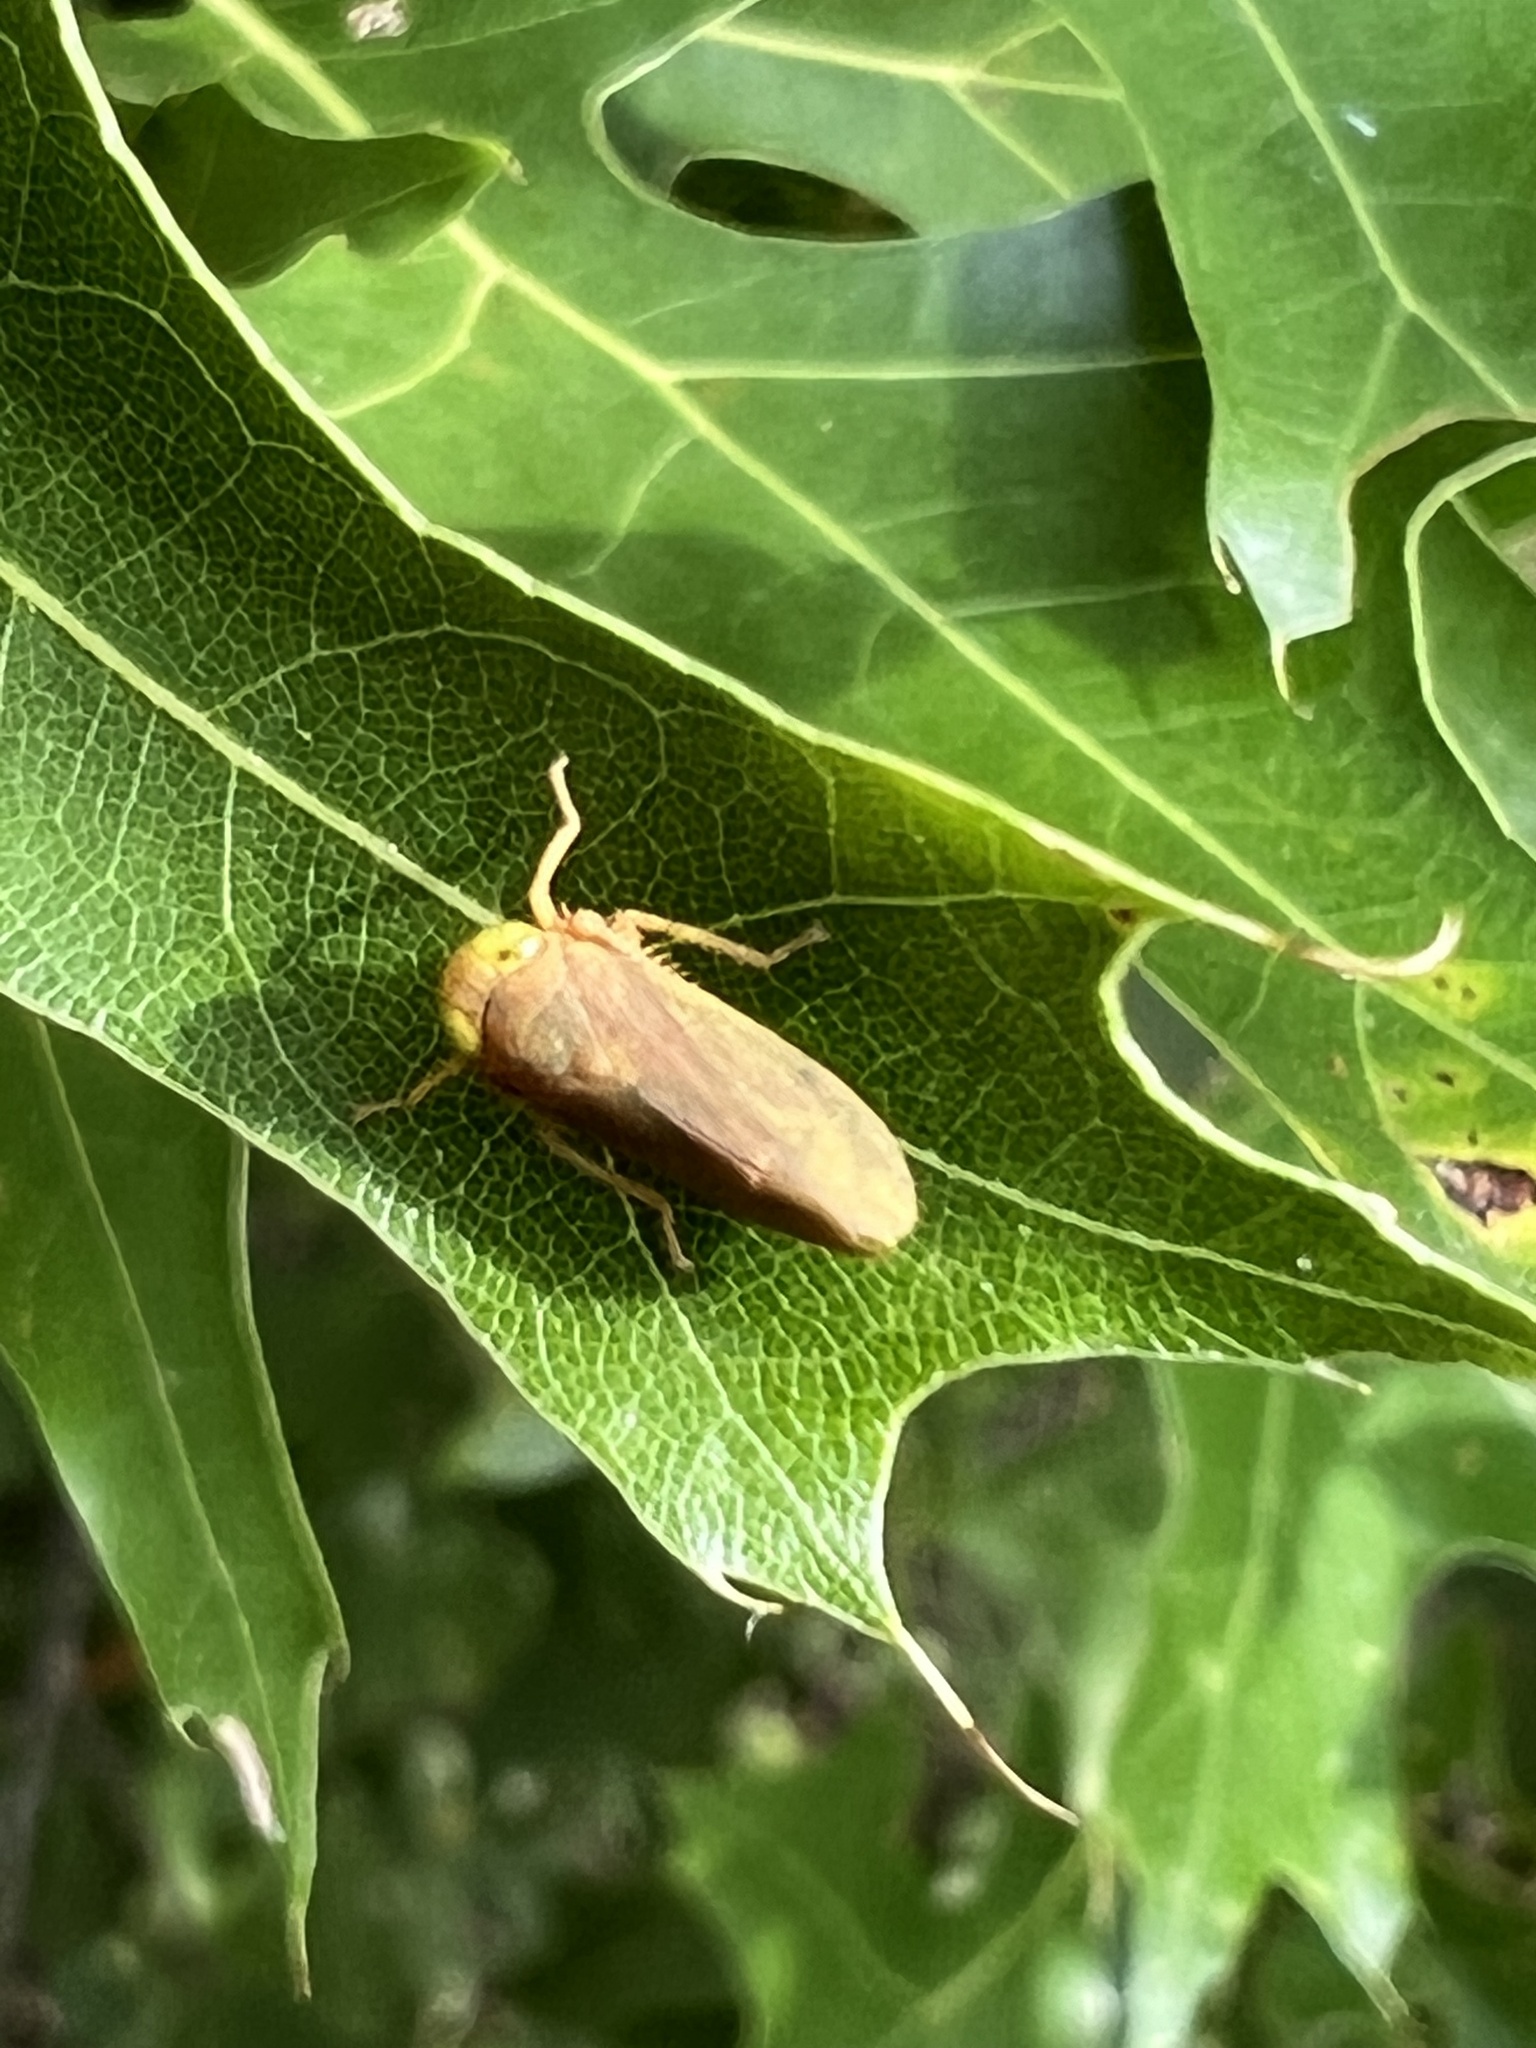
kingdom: Animalia
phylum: Arthropoda
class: Insecta
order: Hemiptera
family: Cicadellidae
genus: Jikradia
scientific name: Jikradia olitoria
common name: Coppery leafhopper
